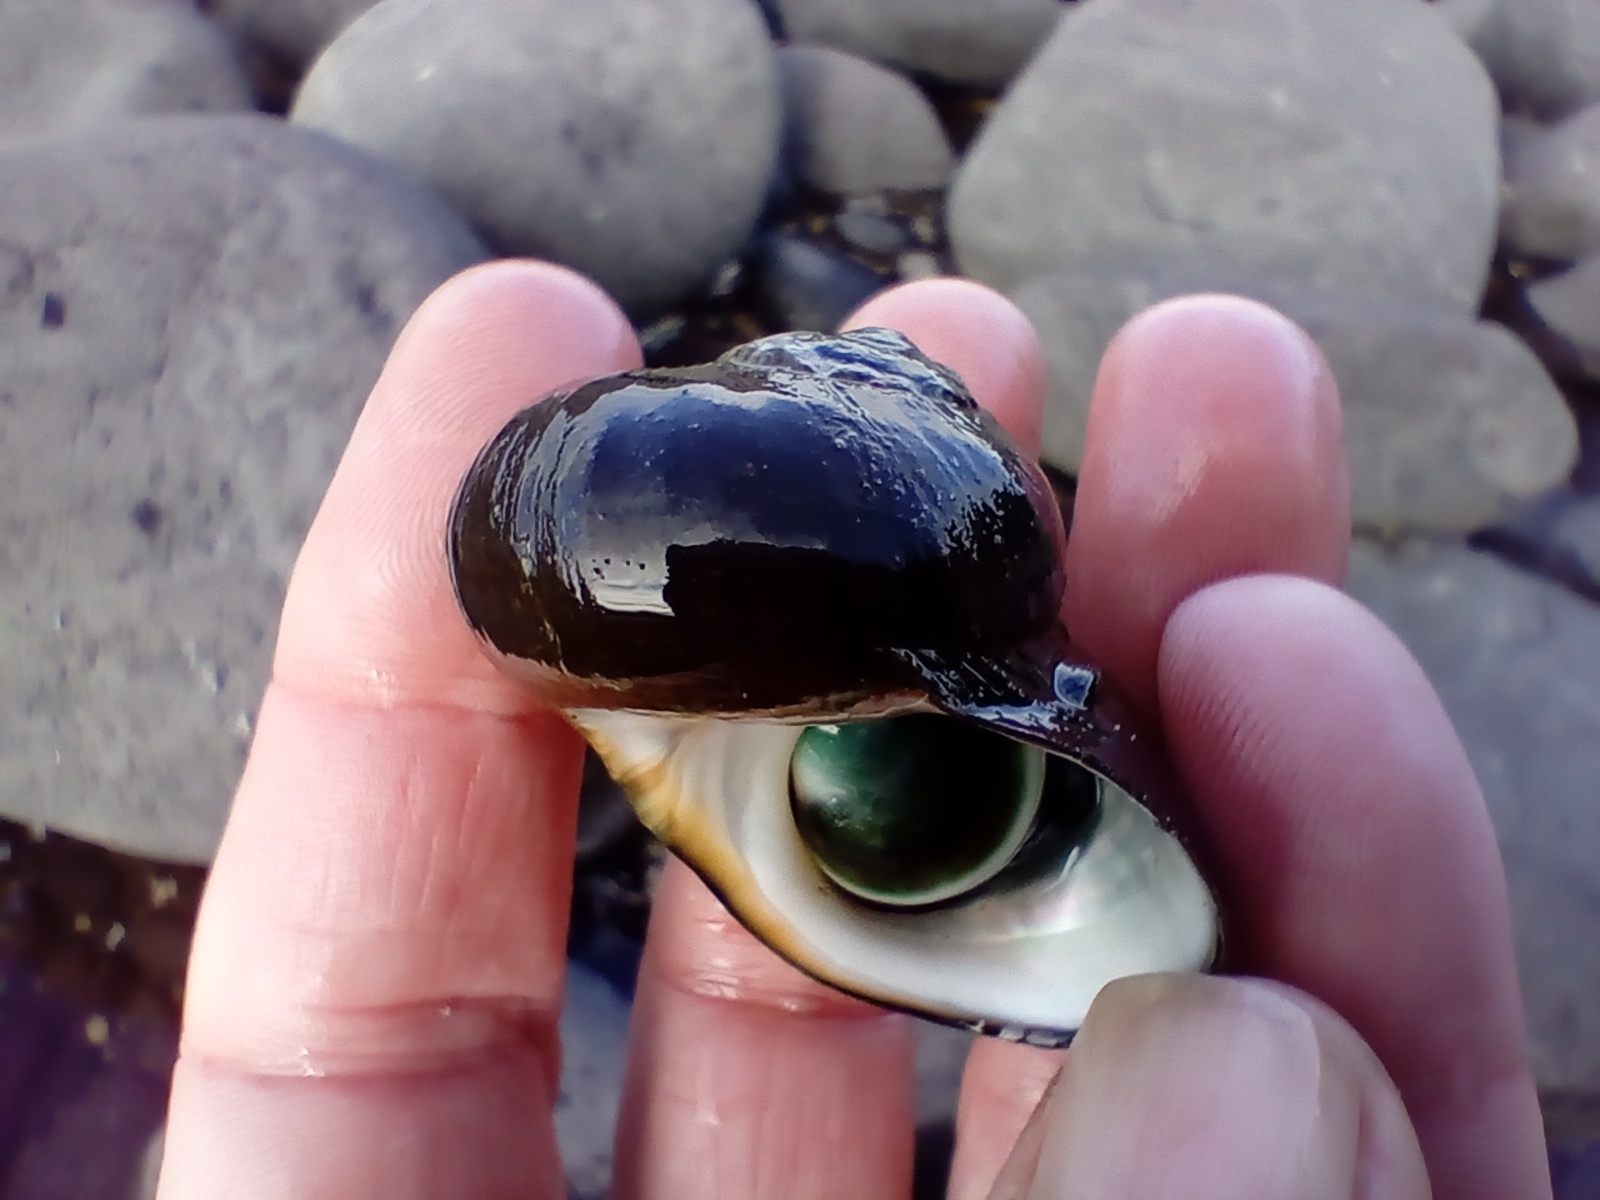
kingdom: Animalia
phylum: Mollusca
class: Gastropoda
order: Trochida
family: Turbinidae
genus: Lunella
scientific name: Lunella smaragda
